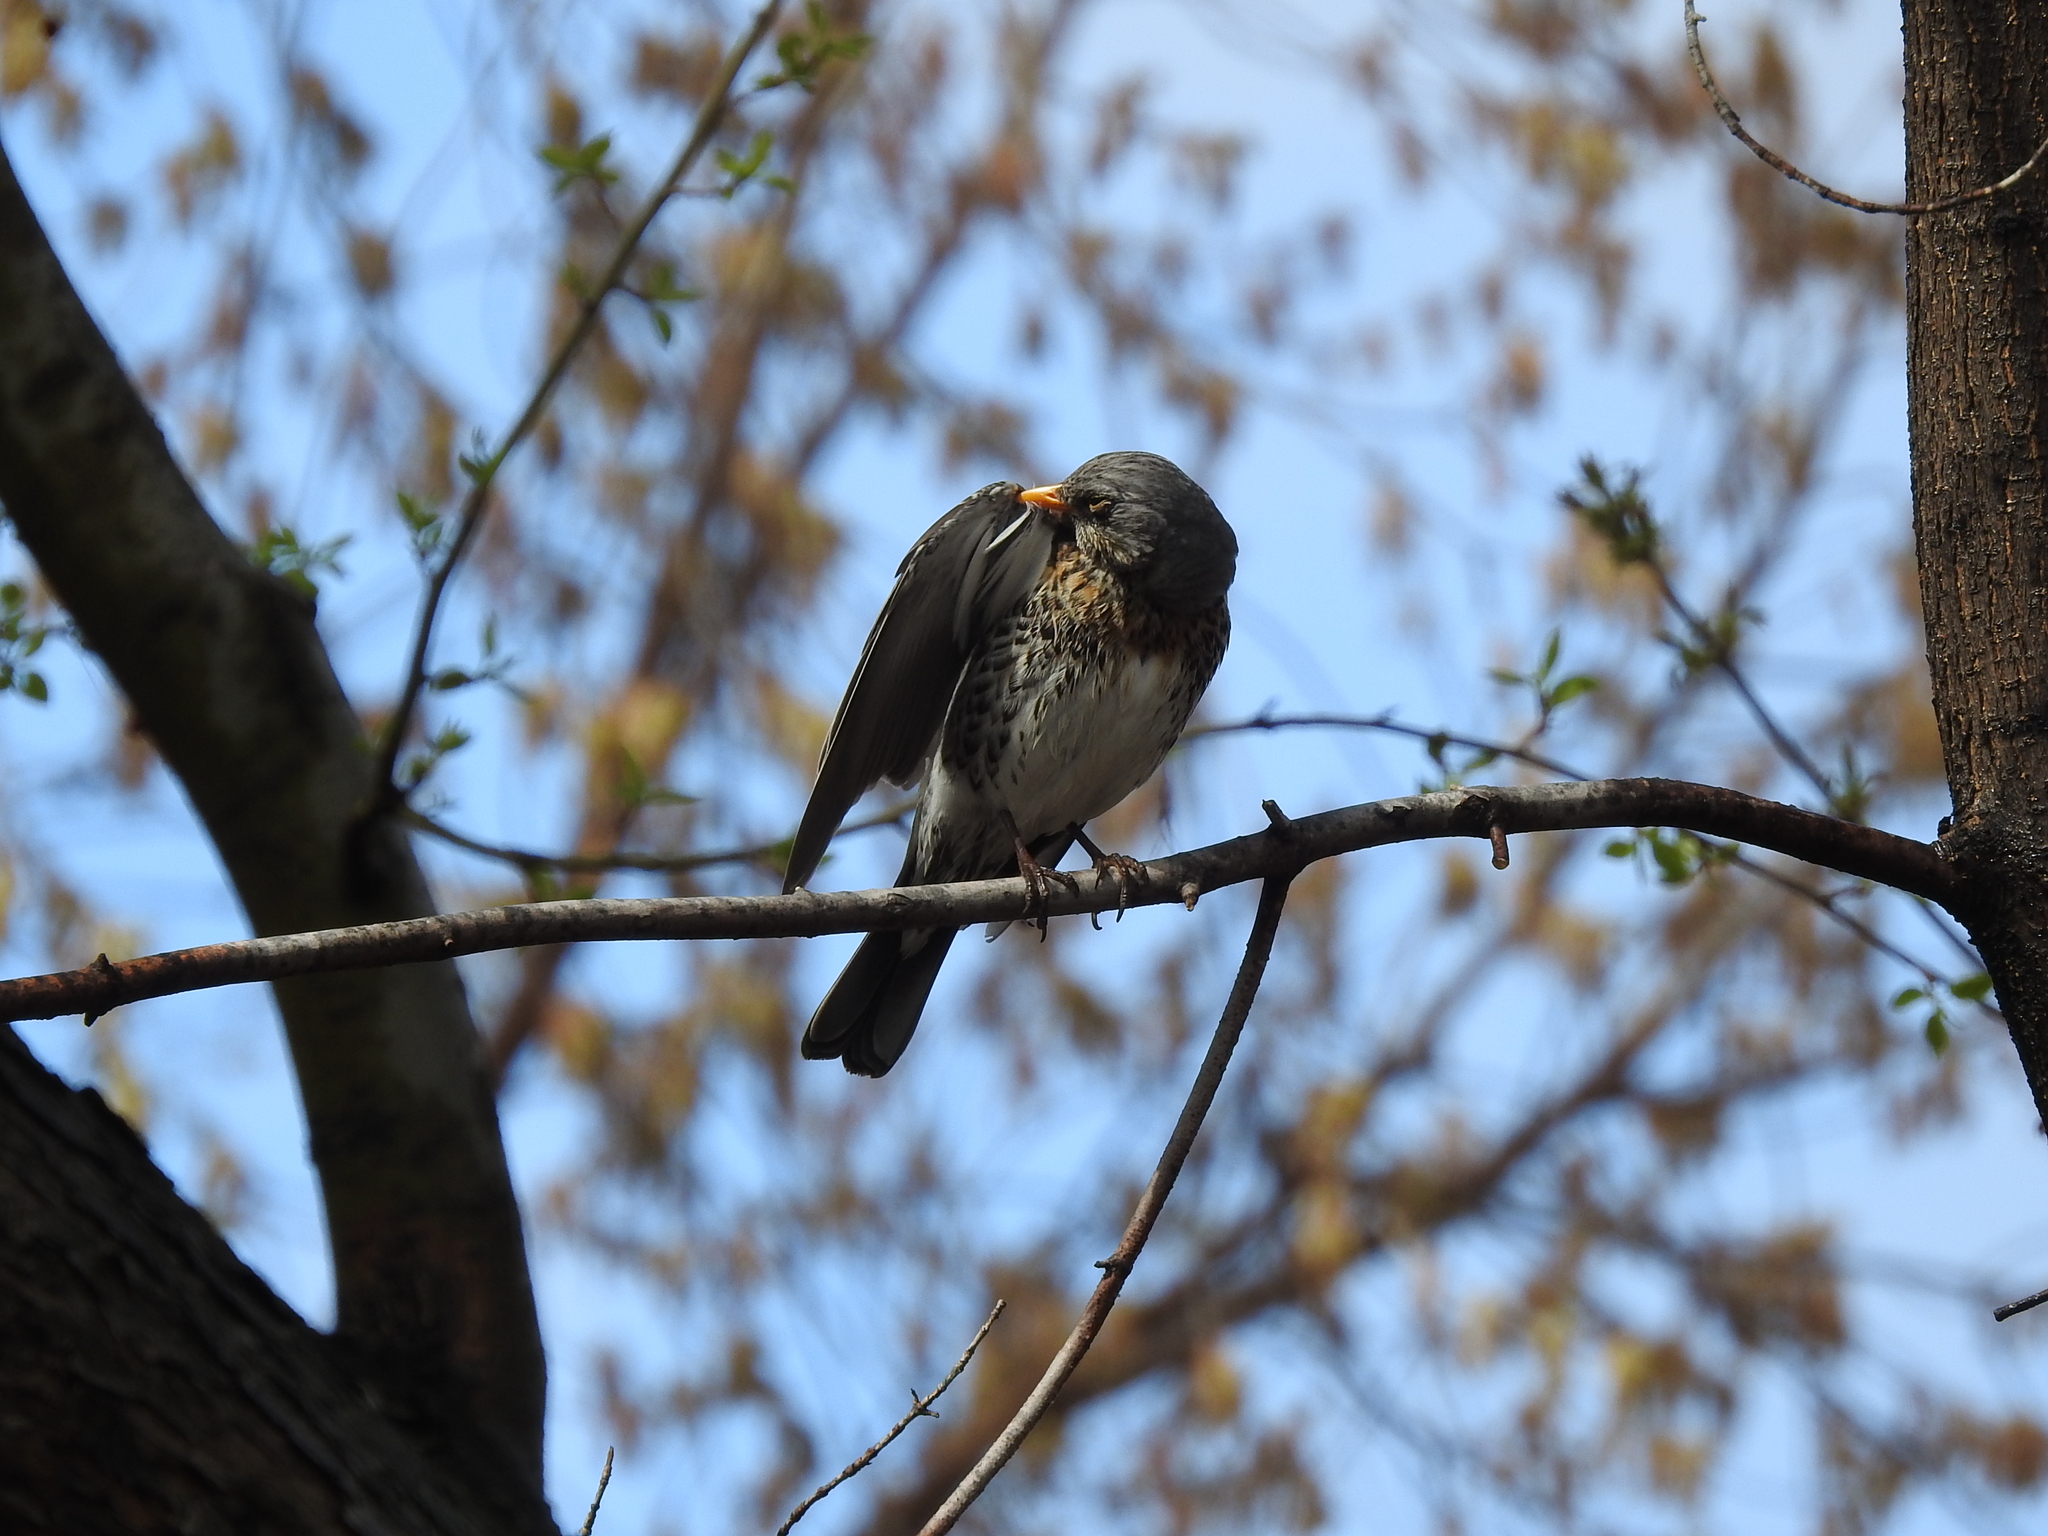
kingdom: Animalia
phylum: Chordata
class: Aves
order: Passeriformes
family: Turdidae
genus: Turdus
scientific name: Turdus pilaris
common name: Fieldfare
